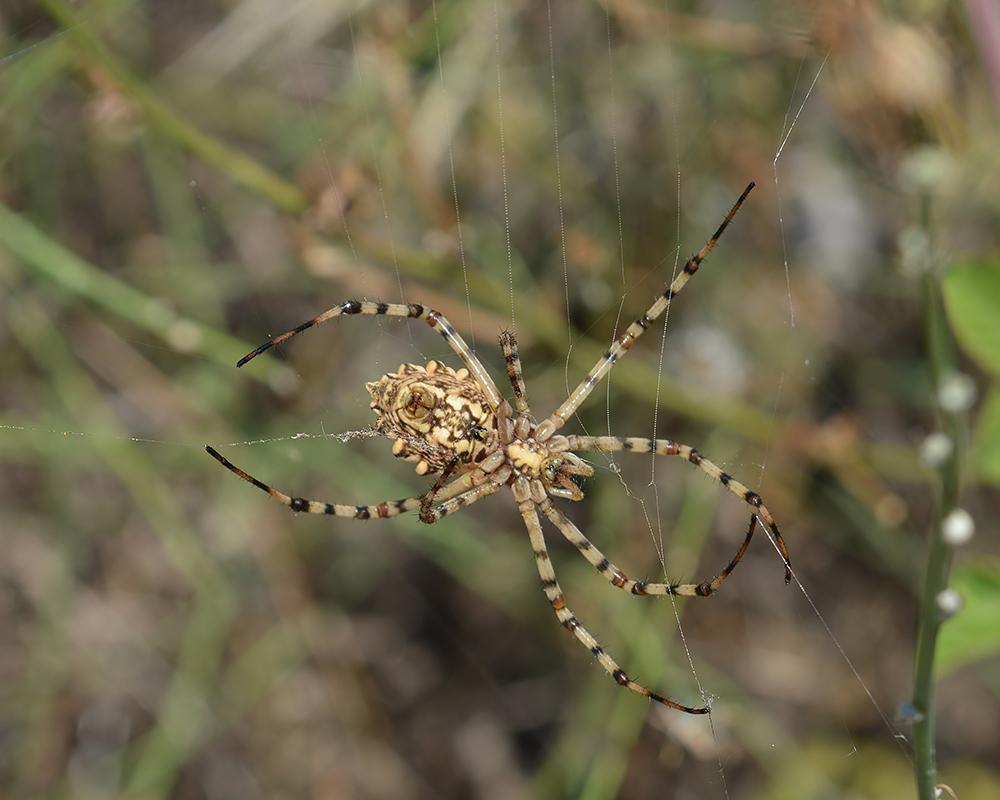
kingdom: Animalia
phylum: Arthropoda
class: Arachnida
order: Araneae
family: Araneidae
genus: Argiope
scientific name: Argiope lobata
